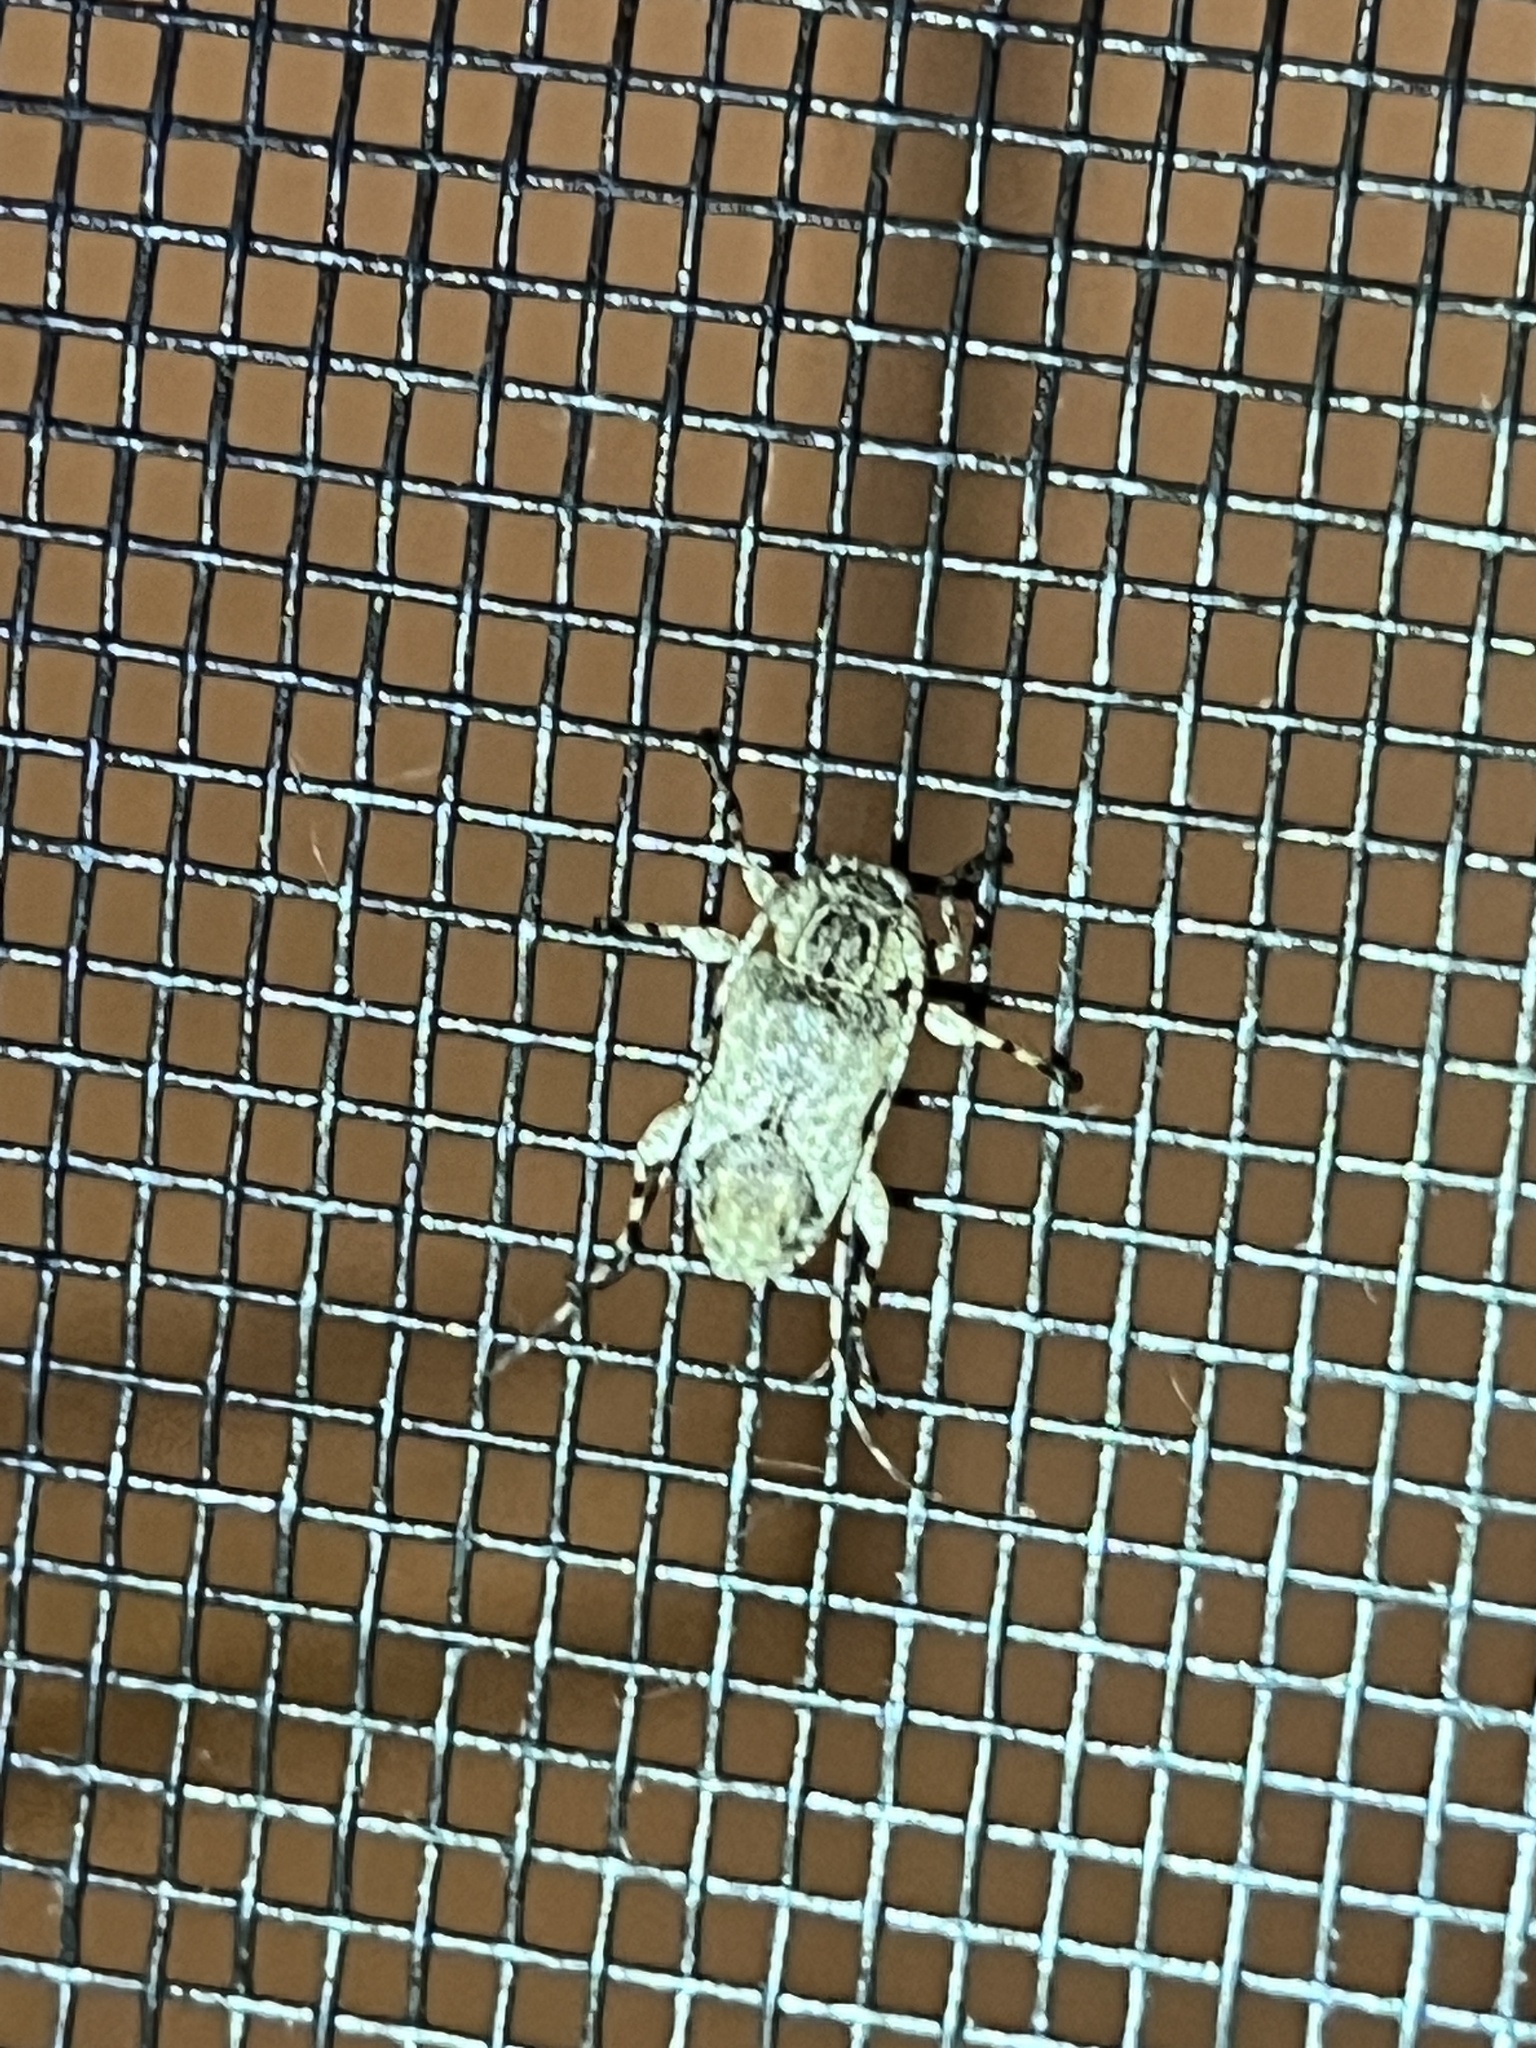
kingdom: Animalia
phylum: Arthropoda
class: Insecta
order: Coleoptera
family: Cerambycidae
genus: Styloleptus
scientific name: Styloleptus biustus
